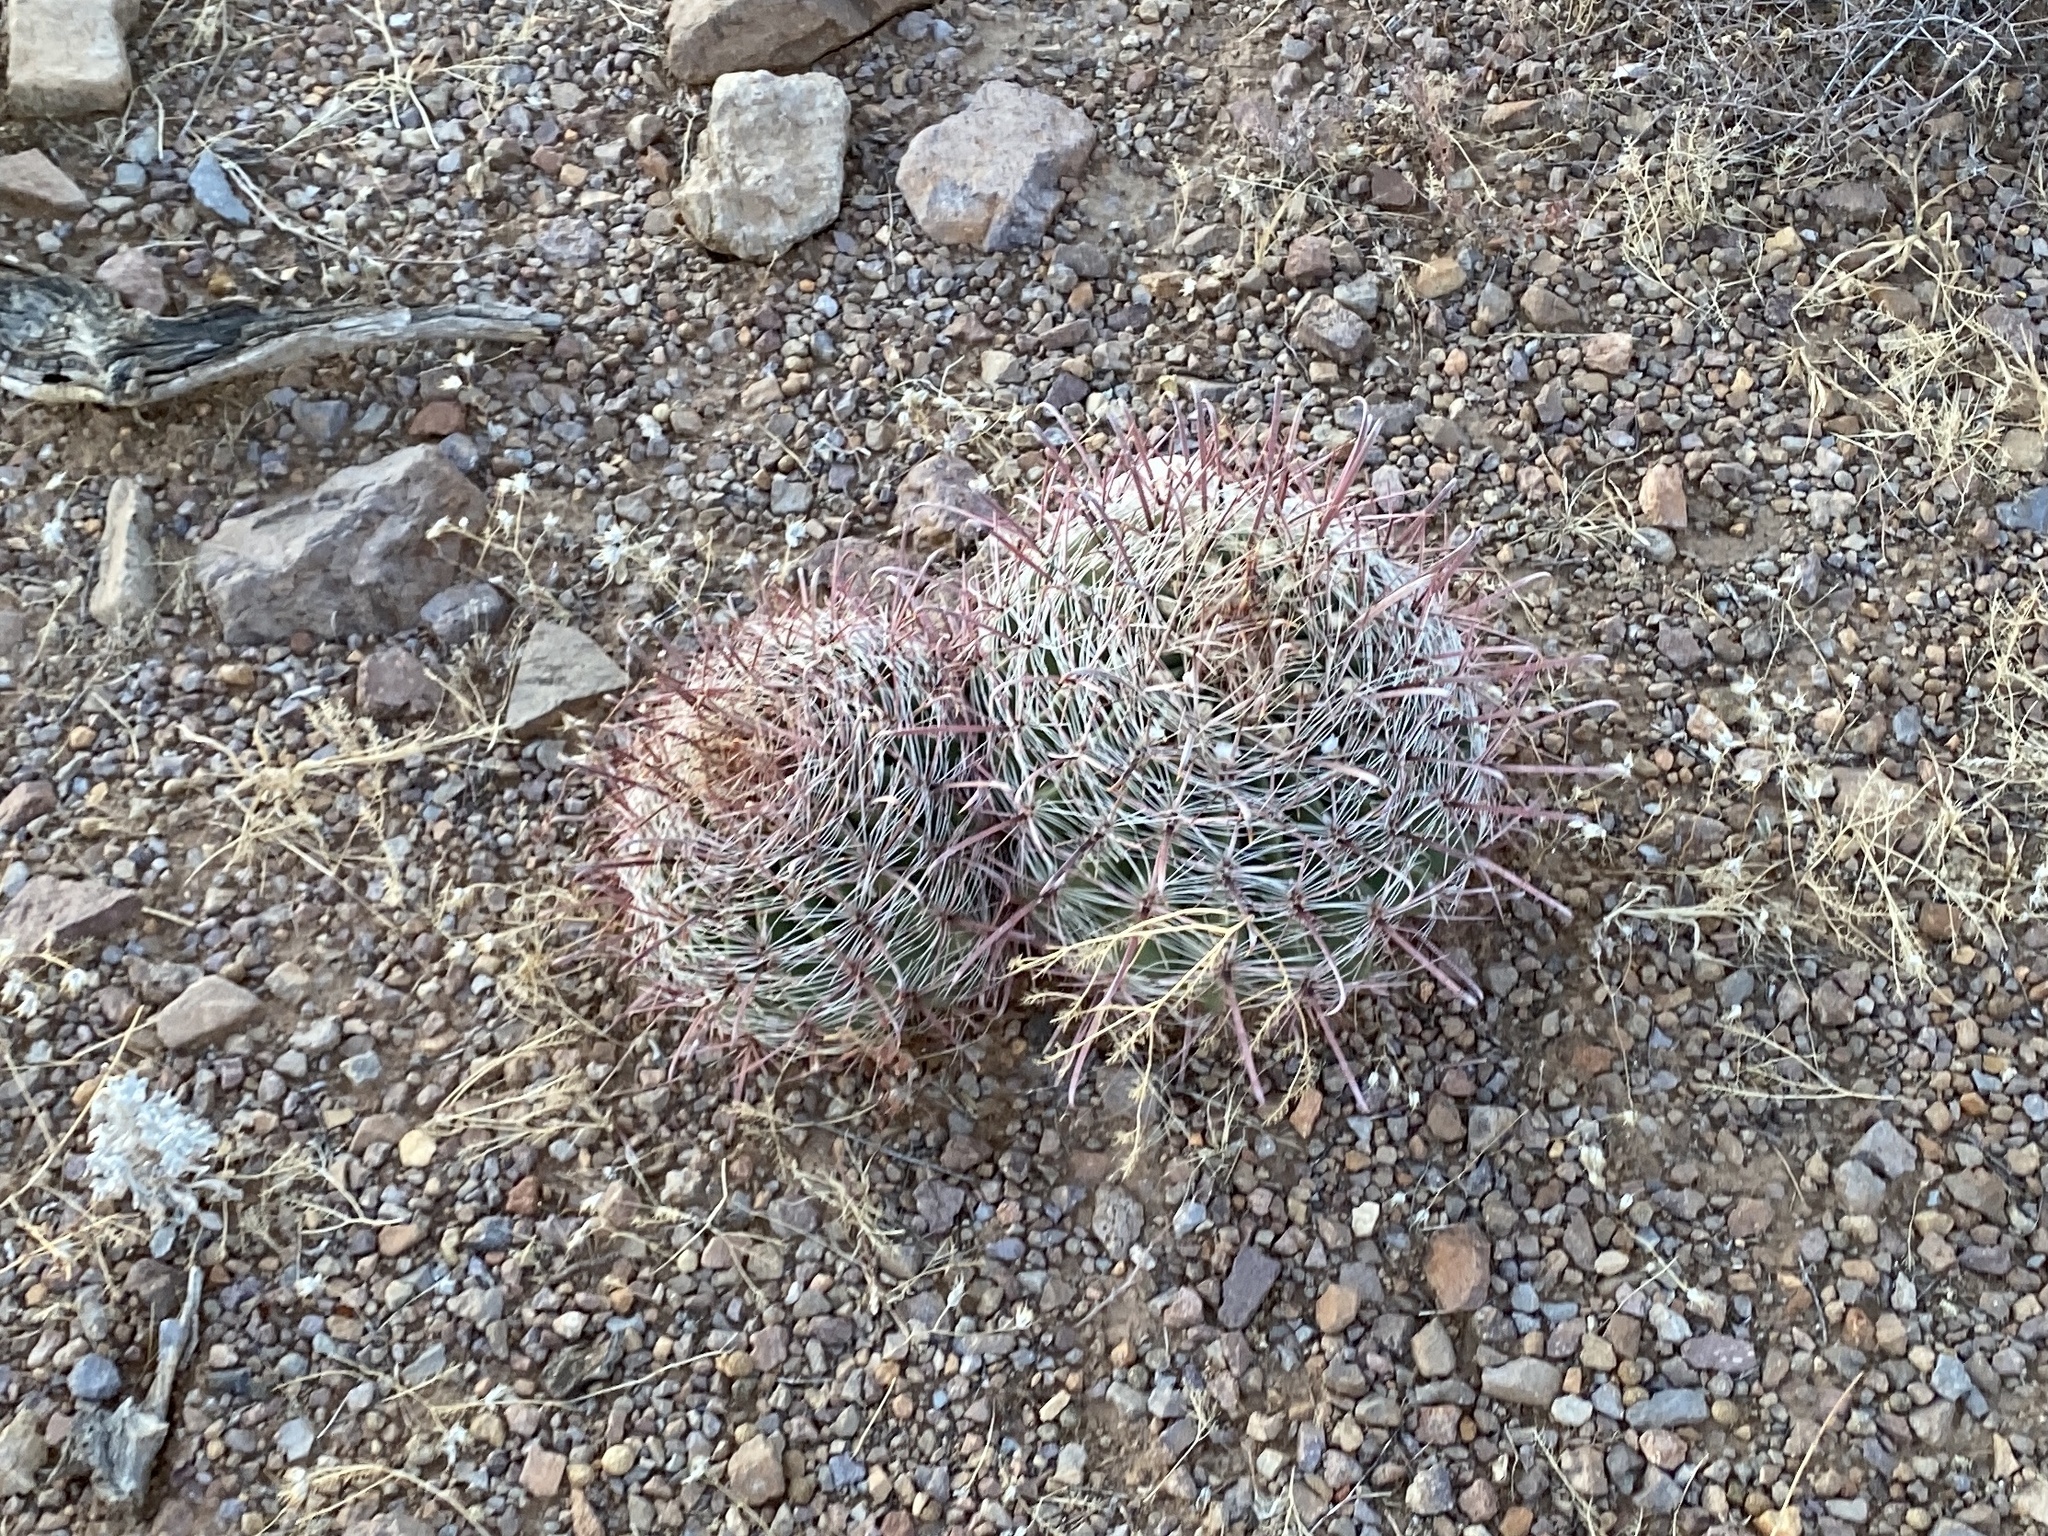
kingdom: Plantae
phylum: Tracheophyta
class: Magnoliopsida
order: Caryophyllales
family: Cactaceae
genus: Ferocactus
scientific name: Ferocactus wislizeni
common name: Candy barrel cactus
